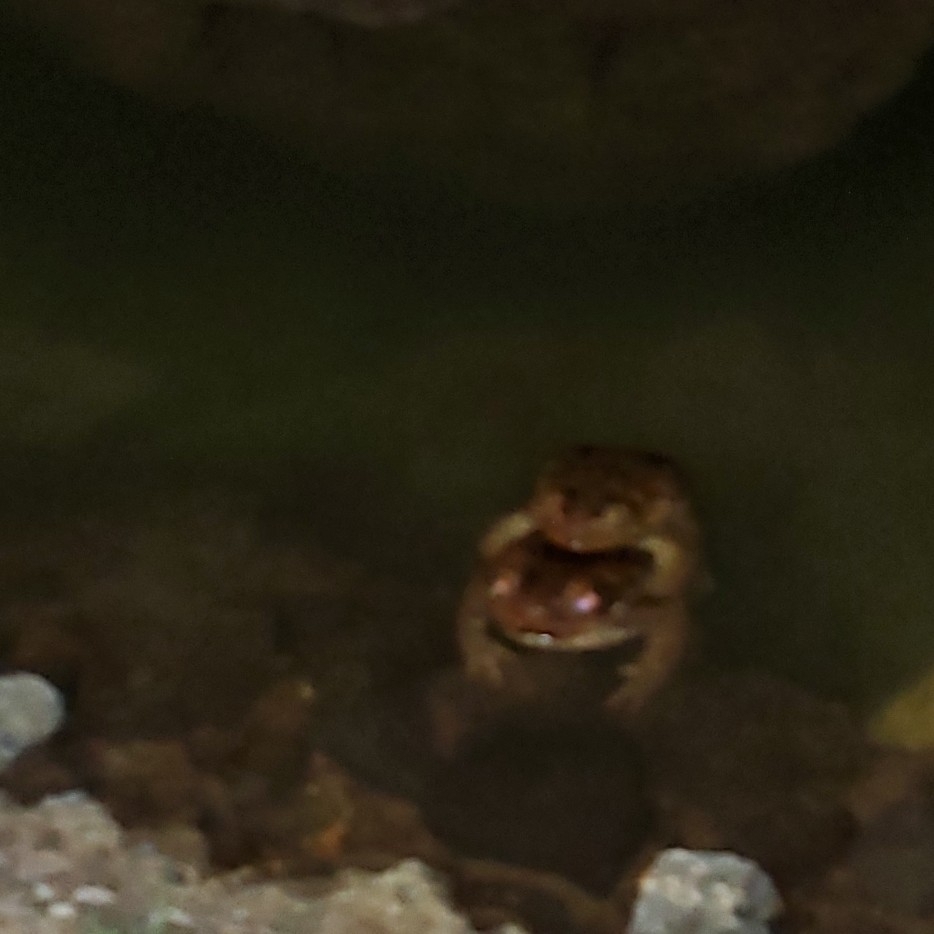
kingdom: Animalia
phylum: Chordata
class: Amphibia
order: Anura
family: Bufonidae
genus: Rhinella
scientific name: Rhinella marina
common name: Cane toad
